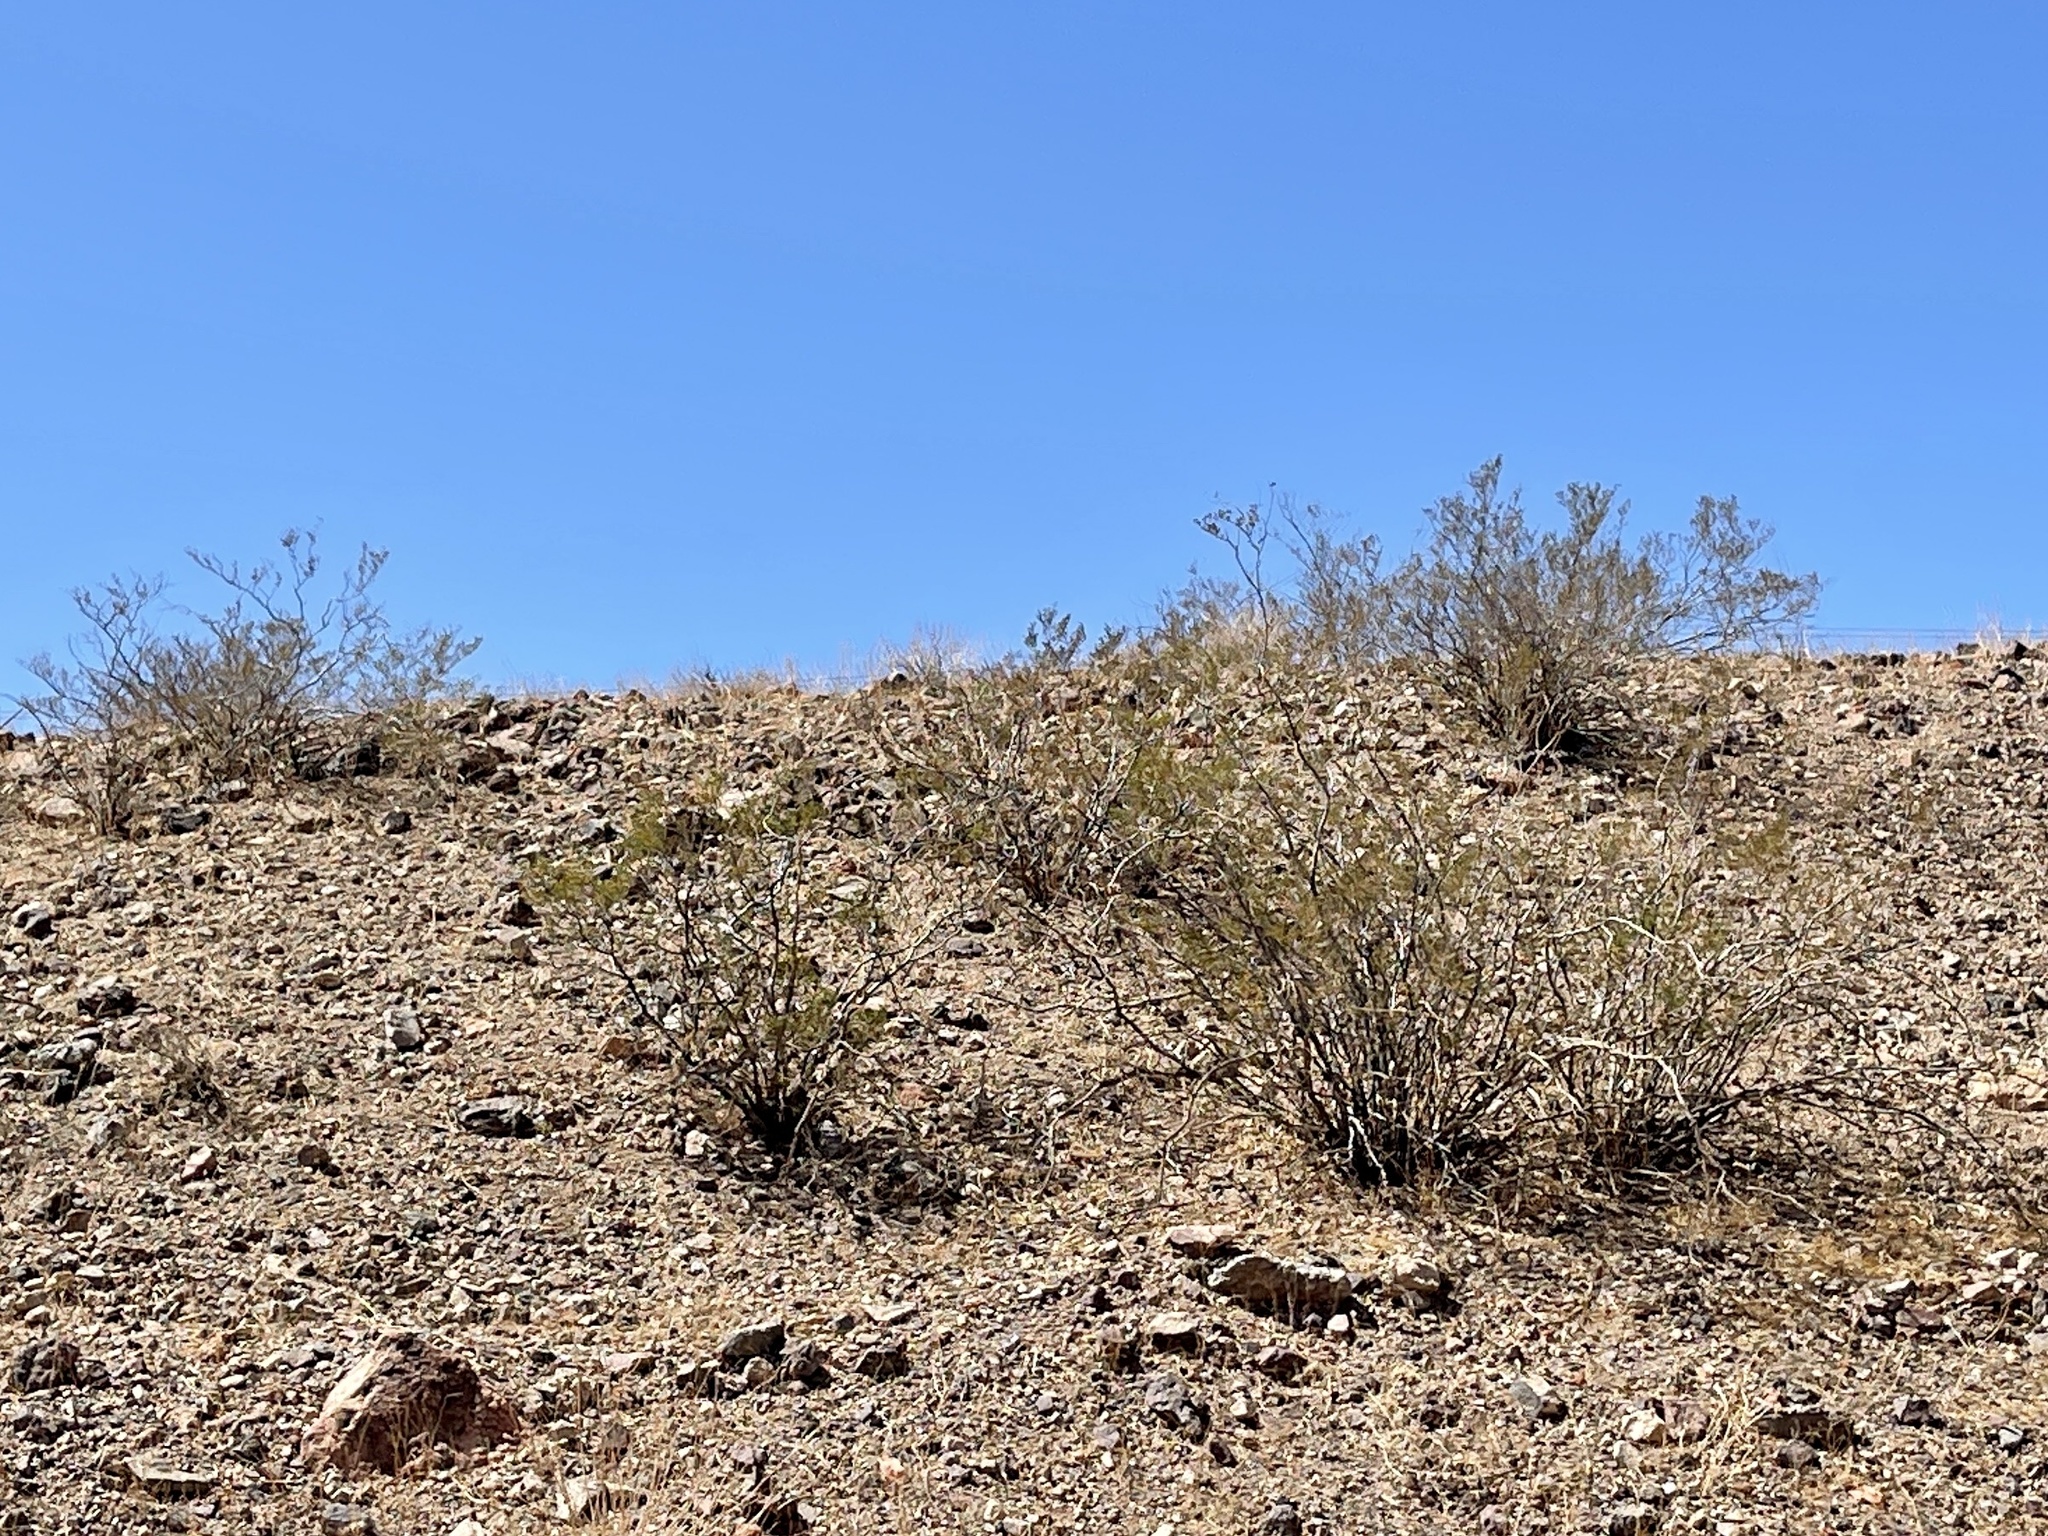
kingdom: Plantae
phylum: Tracheophyta
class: Magnoliopsida
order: Zygophyllales
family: Zygophyllaceae
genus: Larrea
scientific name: Larrea tridentata
